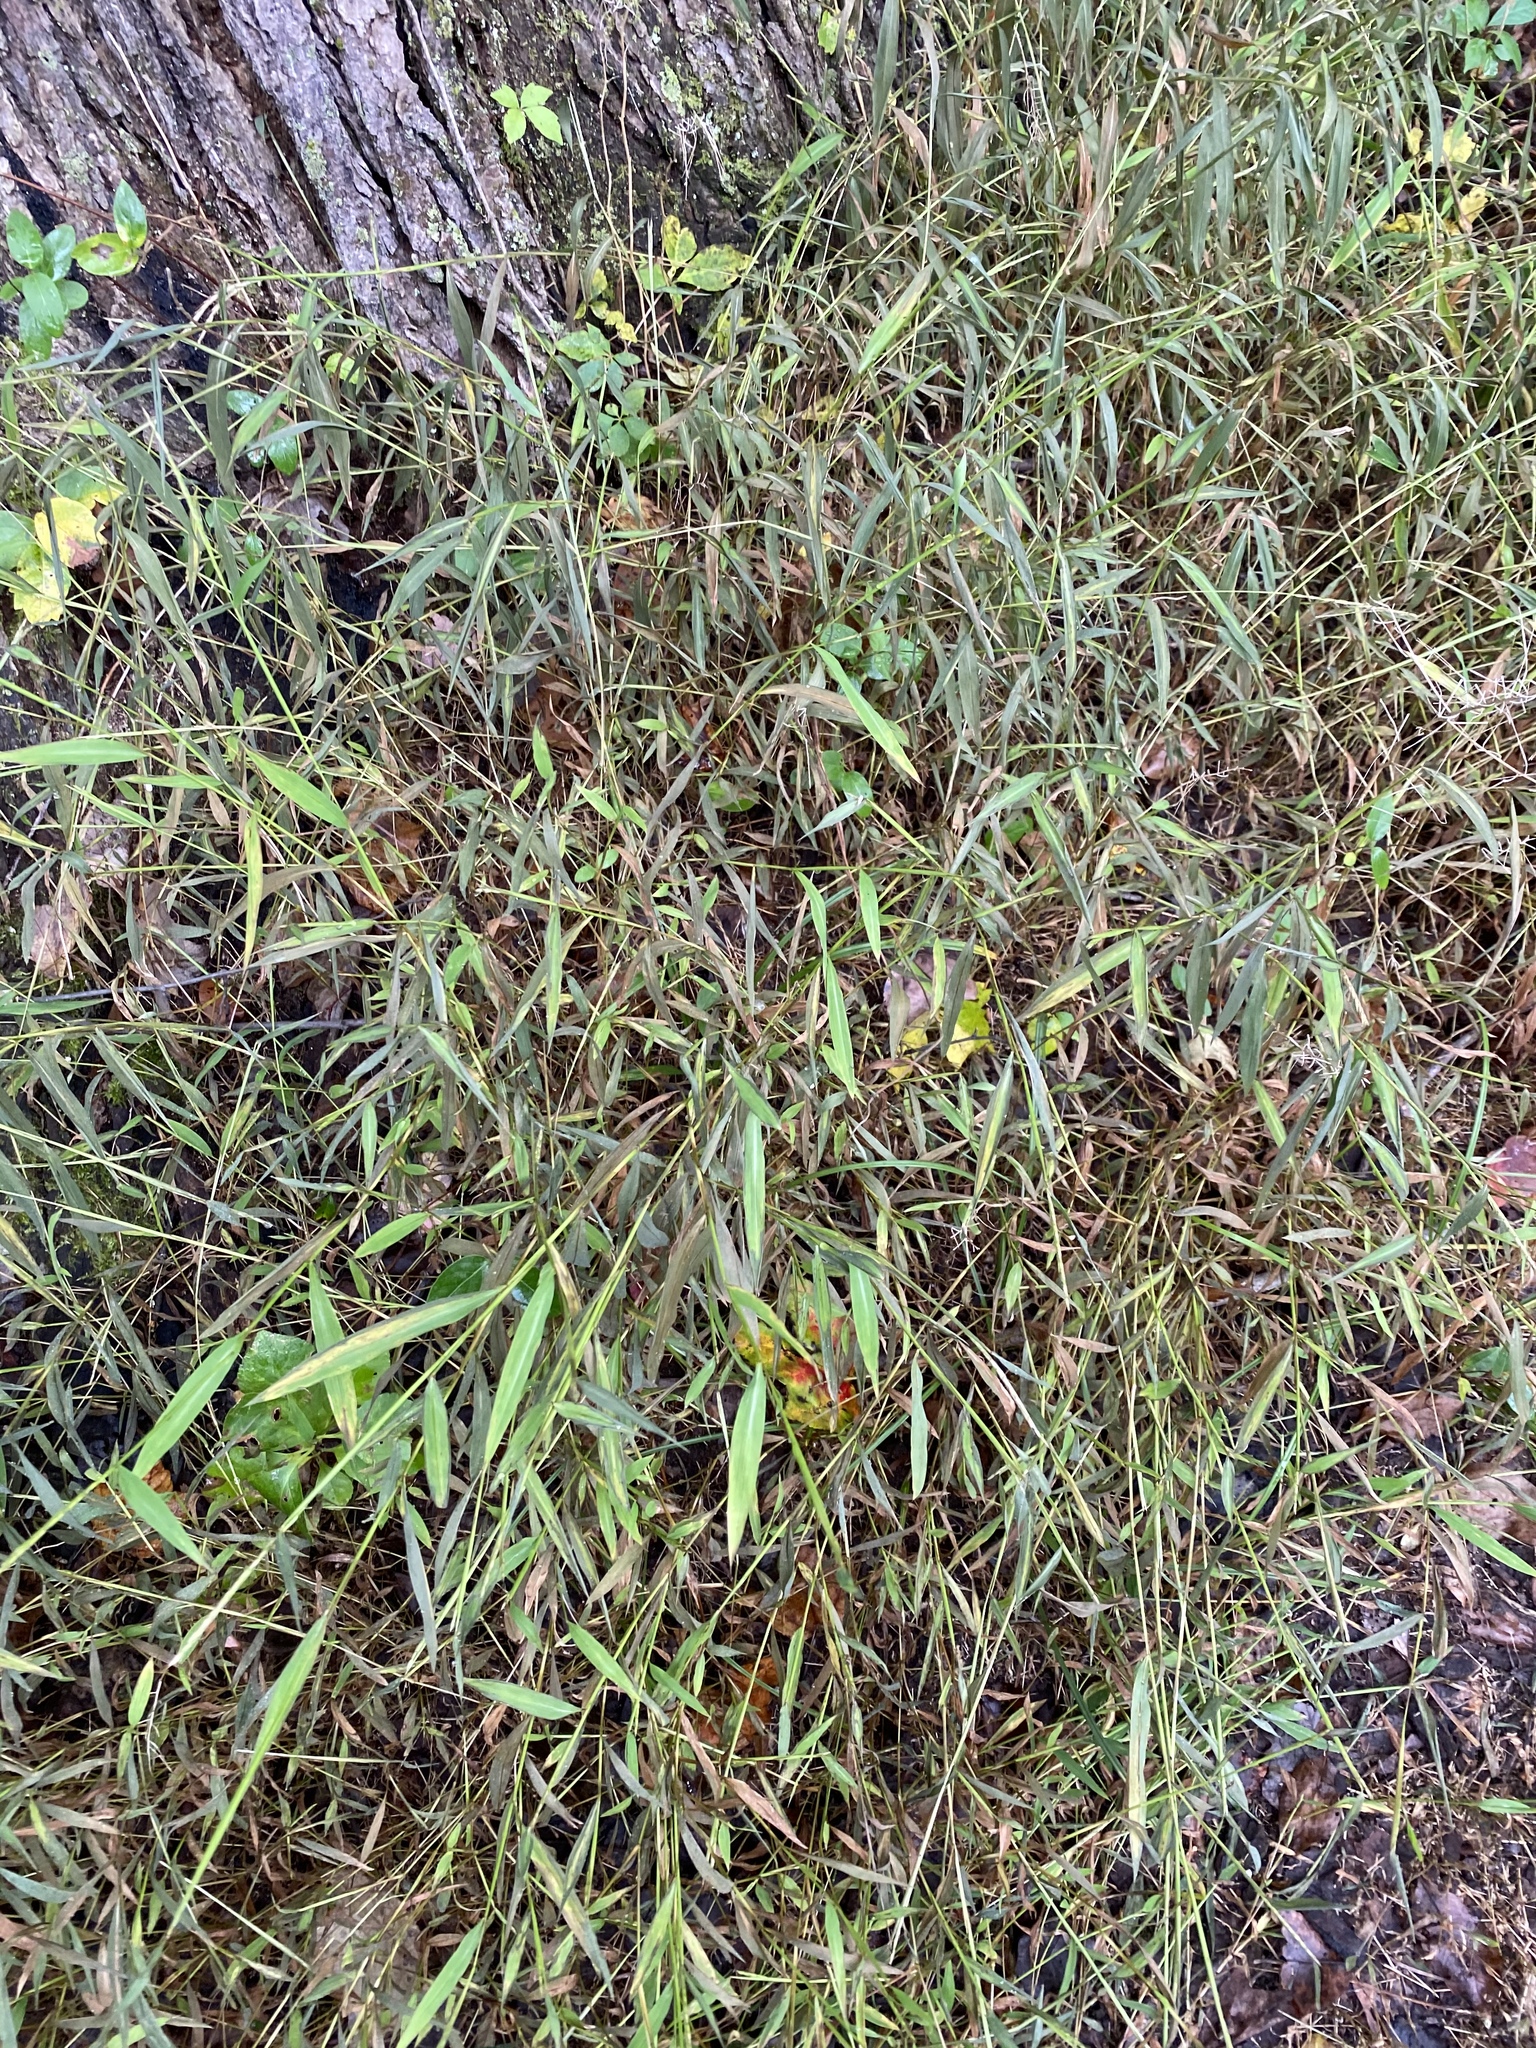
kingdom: Plantae
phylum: Tracheophyta
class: Liliopsida
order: Poales
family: Poaceae
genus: Microstegium
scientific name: Microstegium vimineum
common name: Japanese stiltgrass
